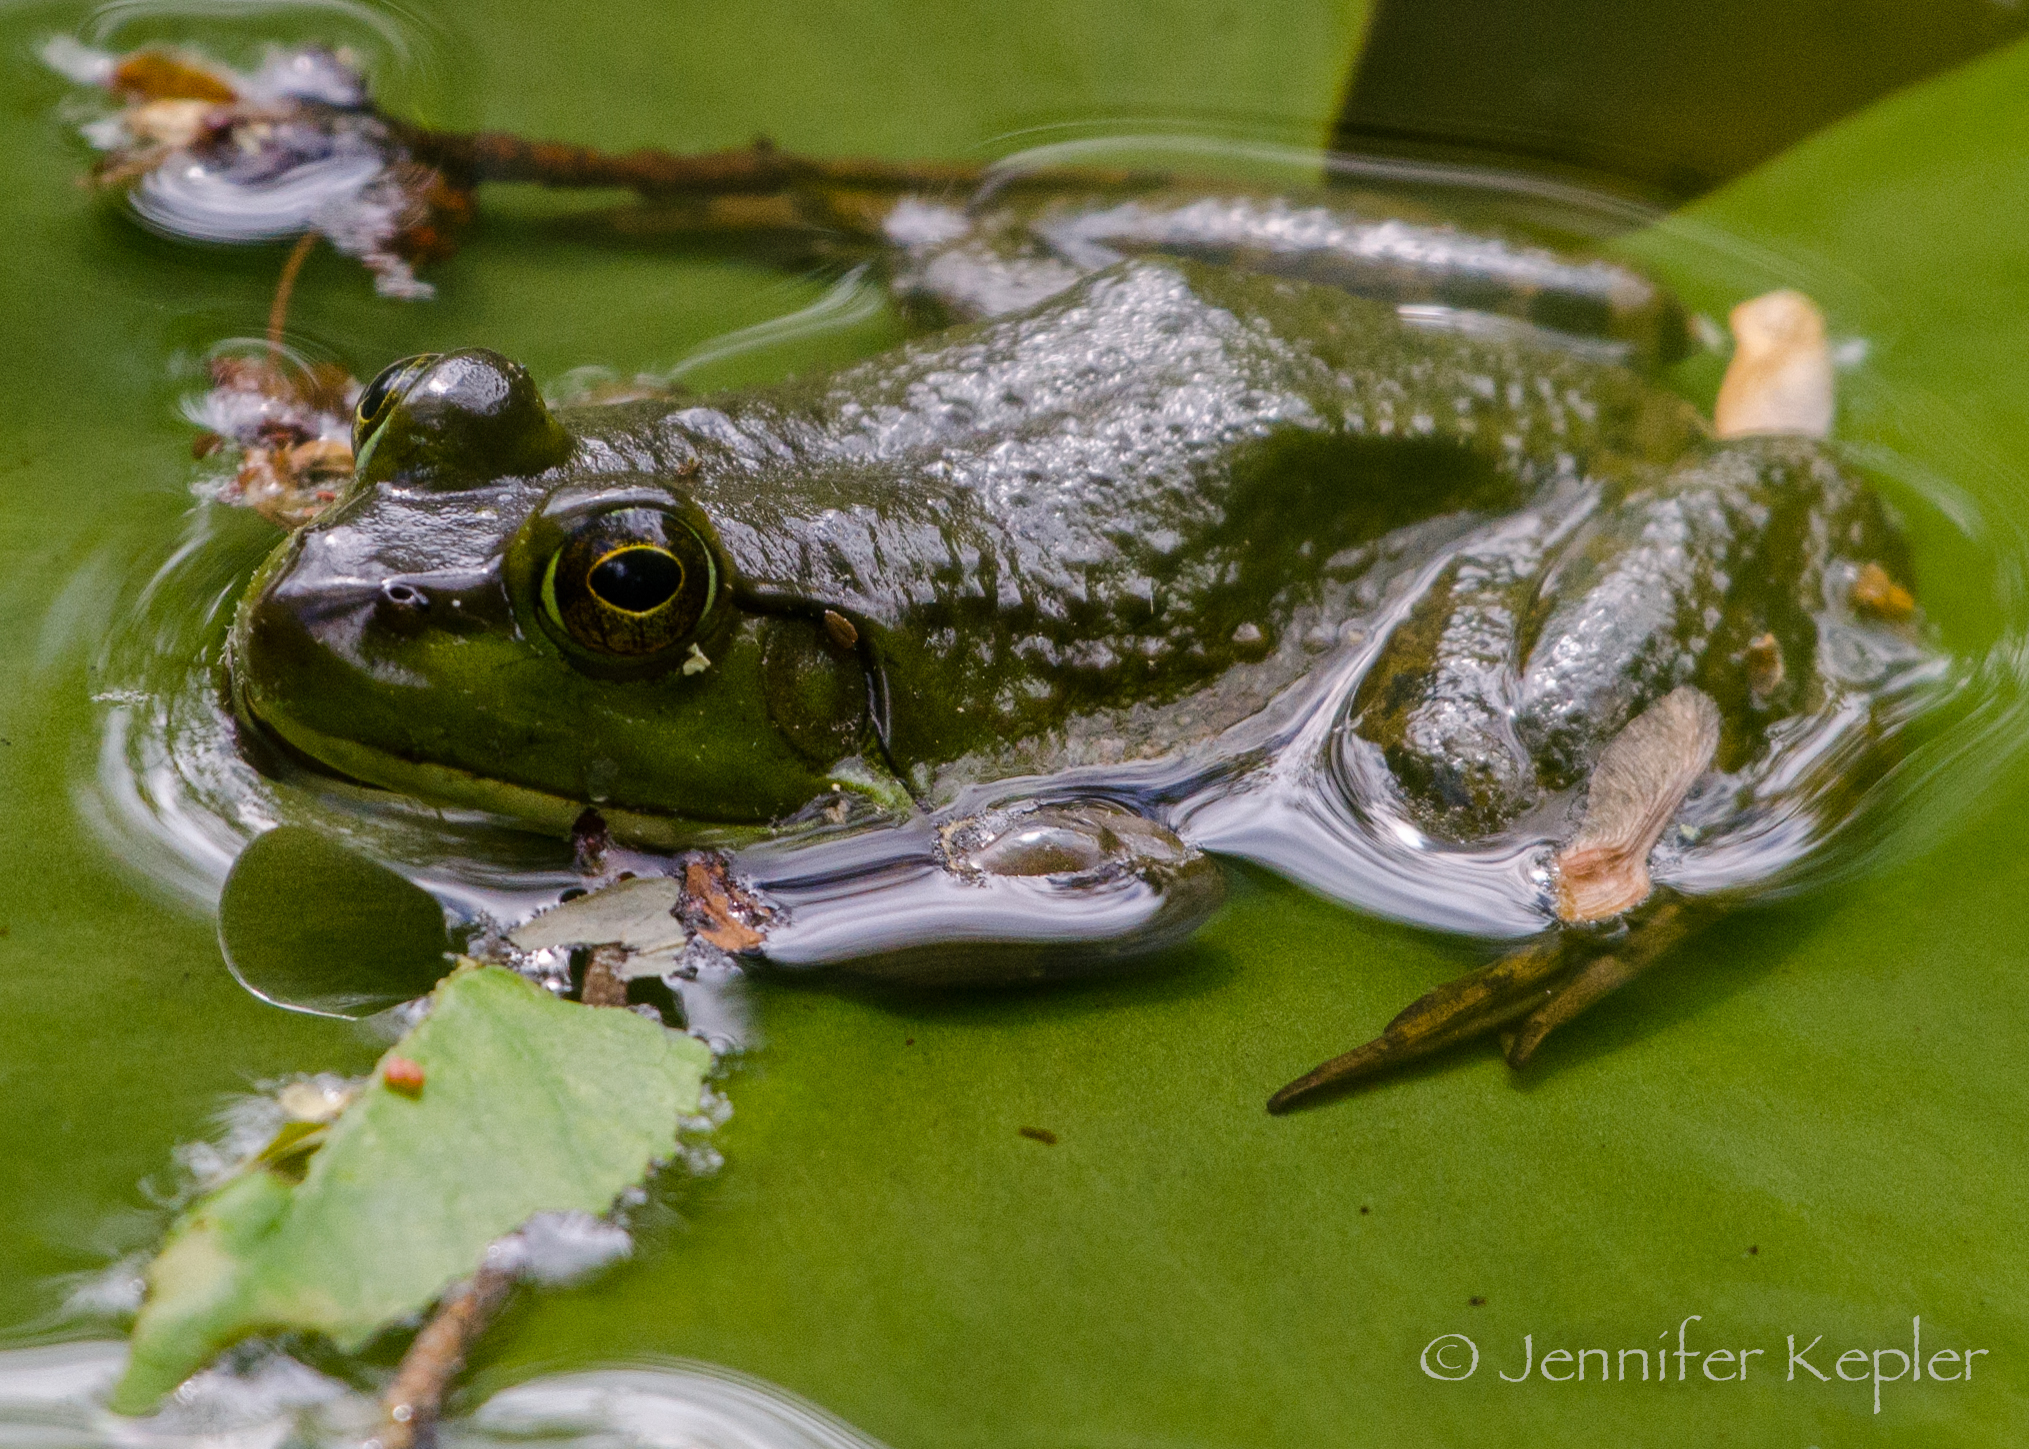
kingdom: Animalia
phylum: Chordata
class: Amphibia
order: Anura
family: Ranidae
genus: Lithobates
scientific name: Lithobates catesbeianus
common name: American bullfrog
